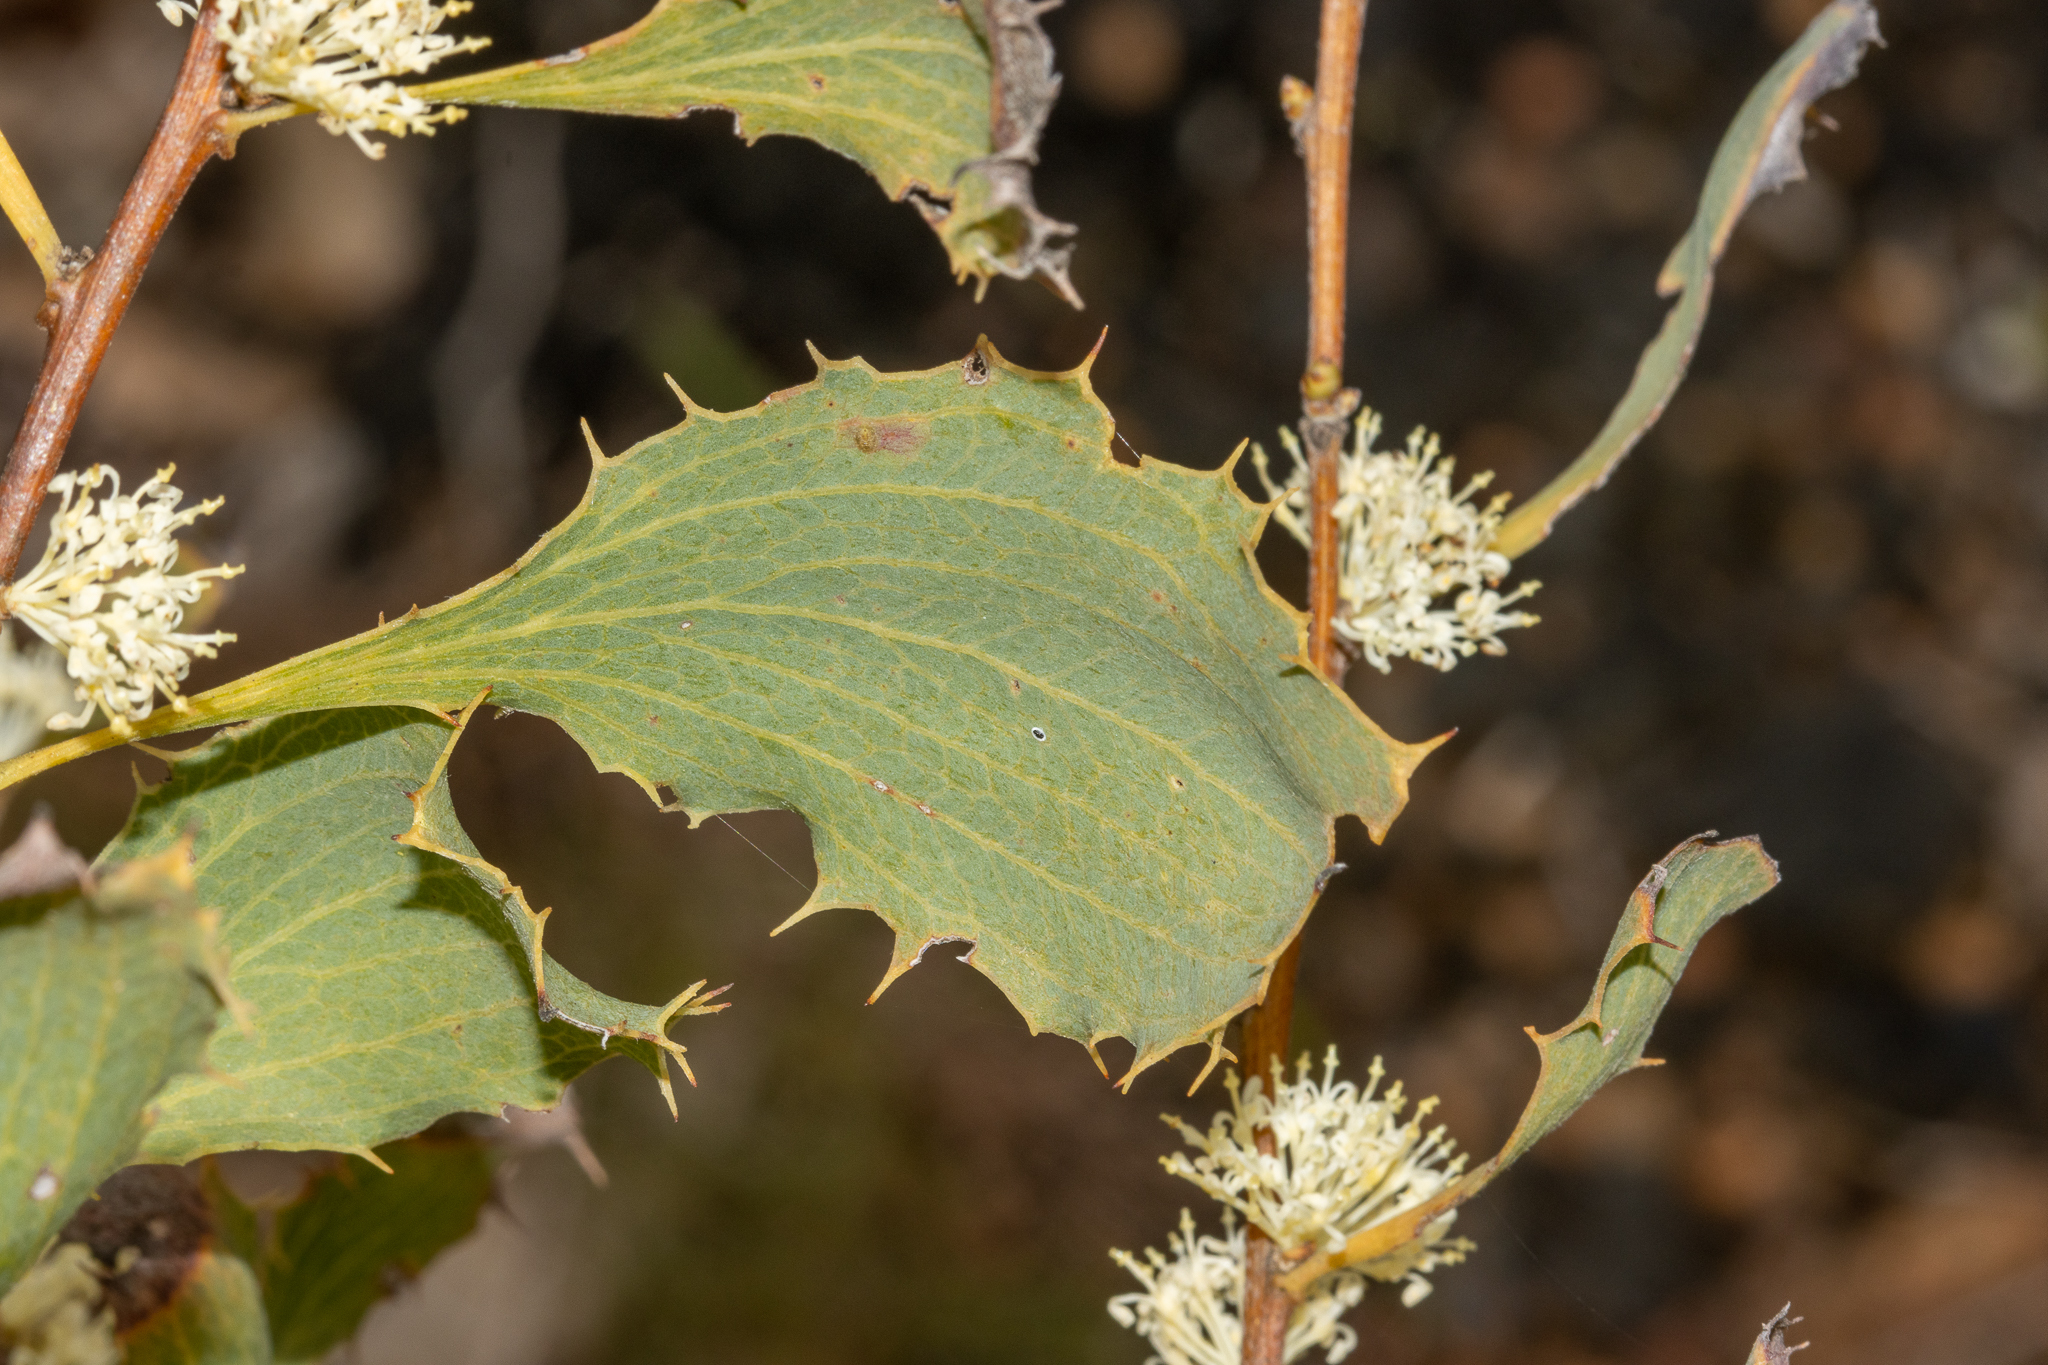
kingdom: Plantae
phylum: Tracheophyta
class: Magnoliopsida
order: Proteales
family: Proteaceae
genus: Hakea
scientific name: Hakea undulata
